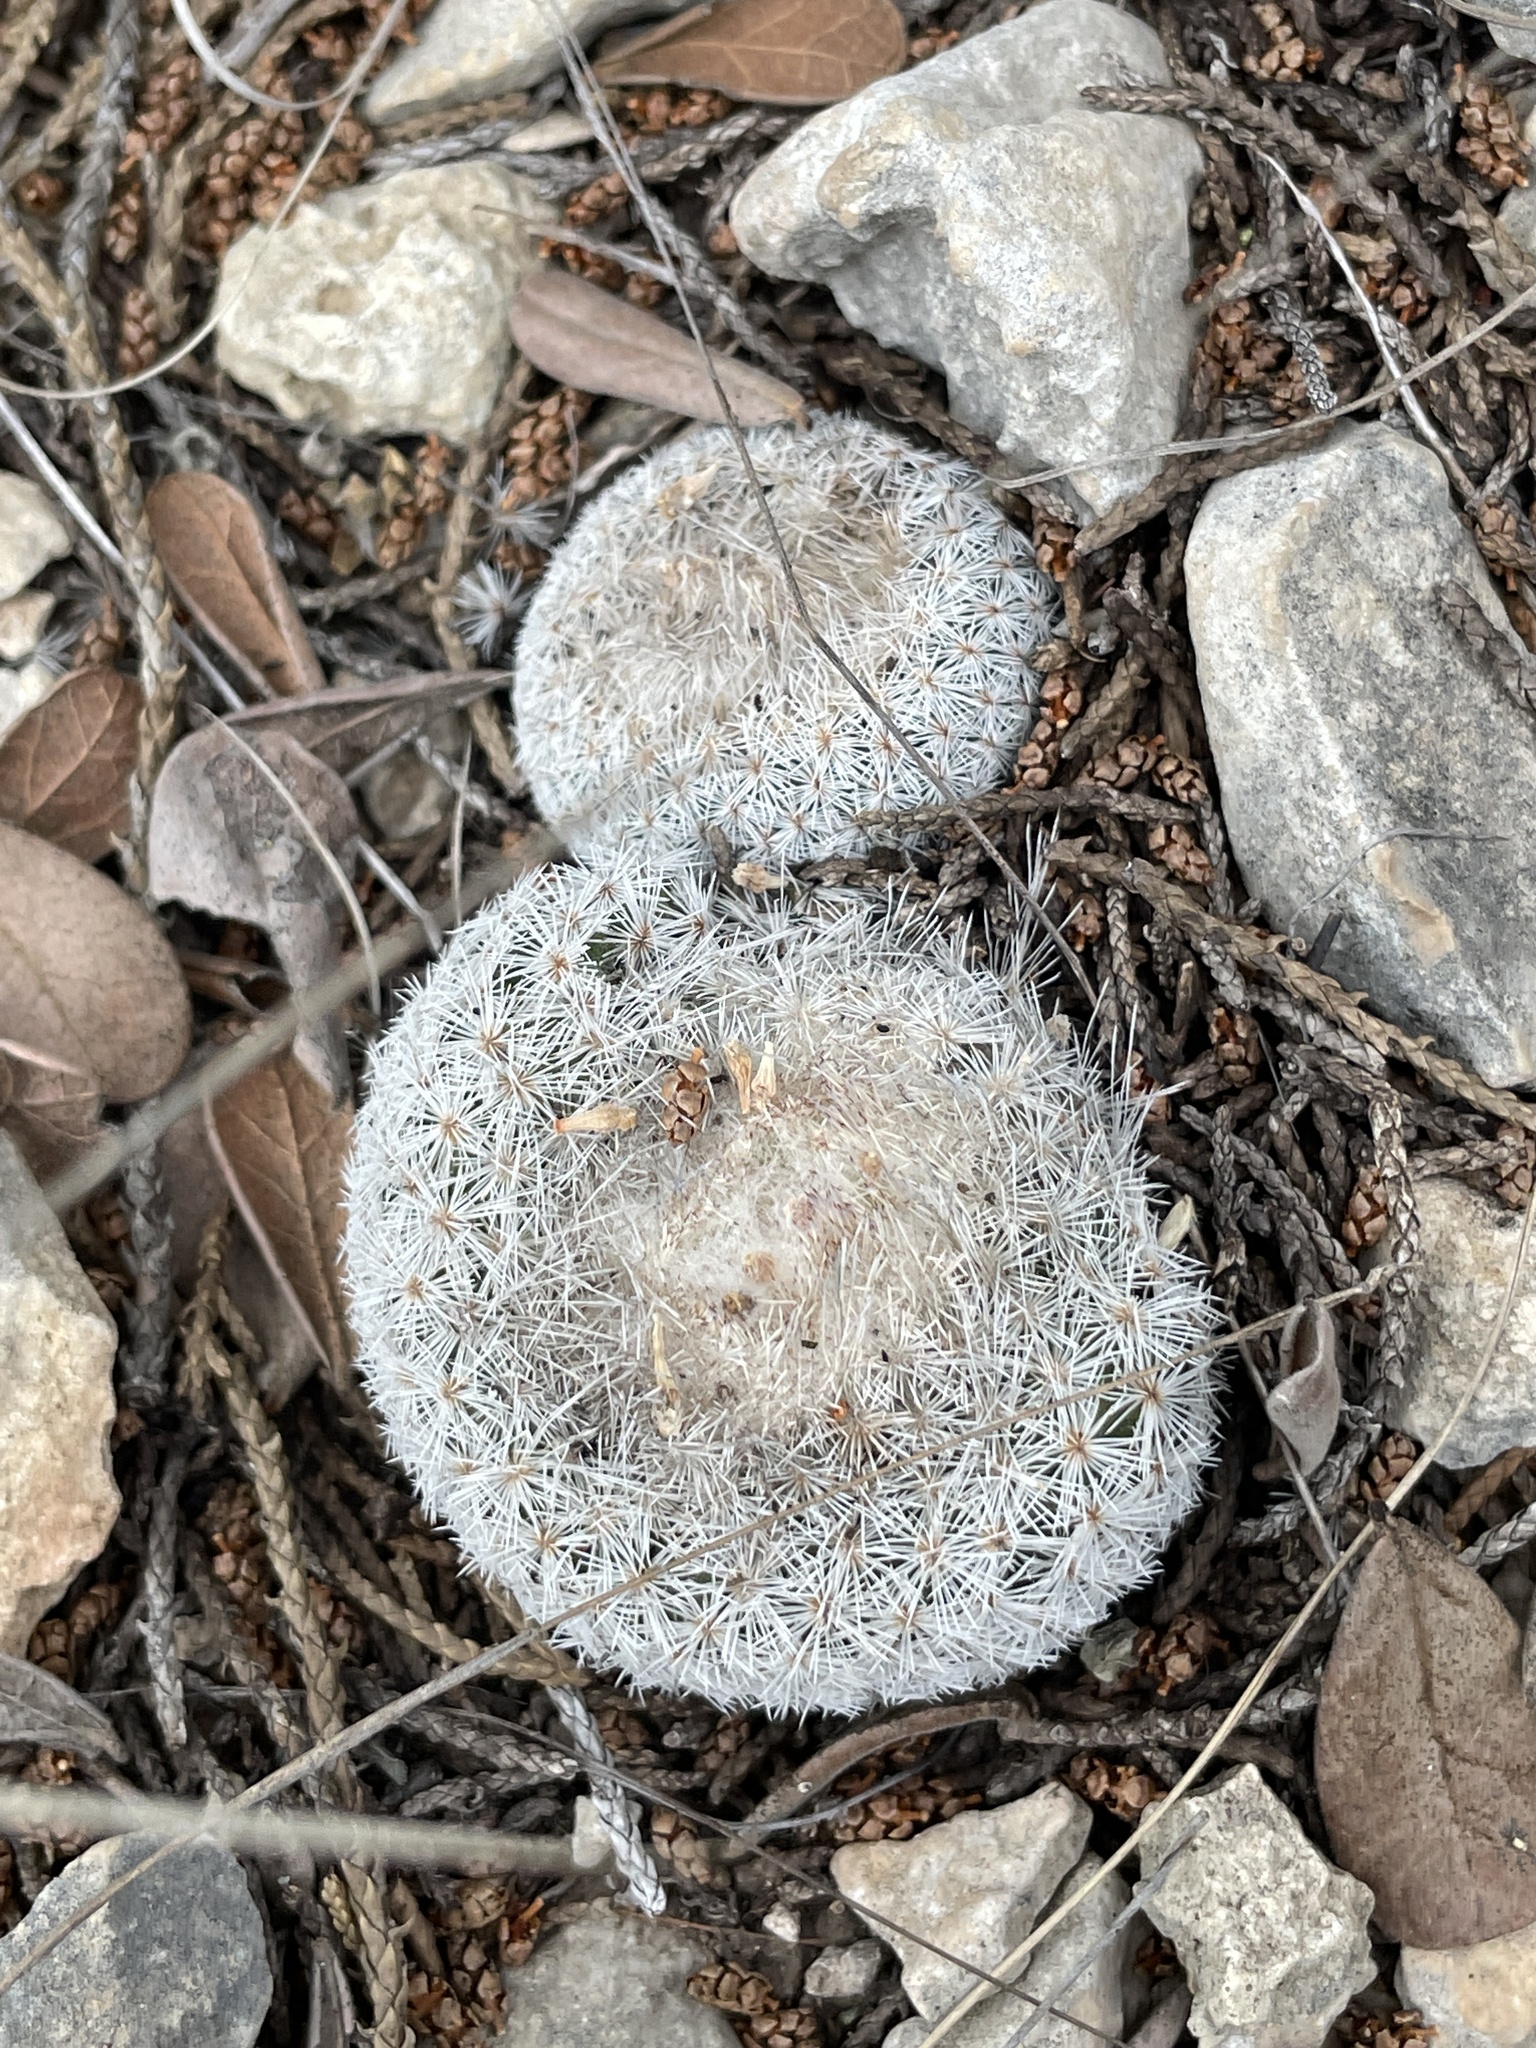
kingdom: Plantae
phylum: Tracheophyta
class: Magnoliopsida
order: Caryophyllales
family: Cactaceae
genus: Epithelantha
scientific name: Epithelantha micromeris
